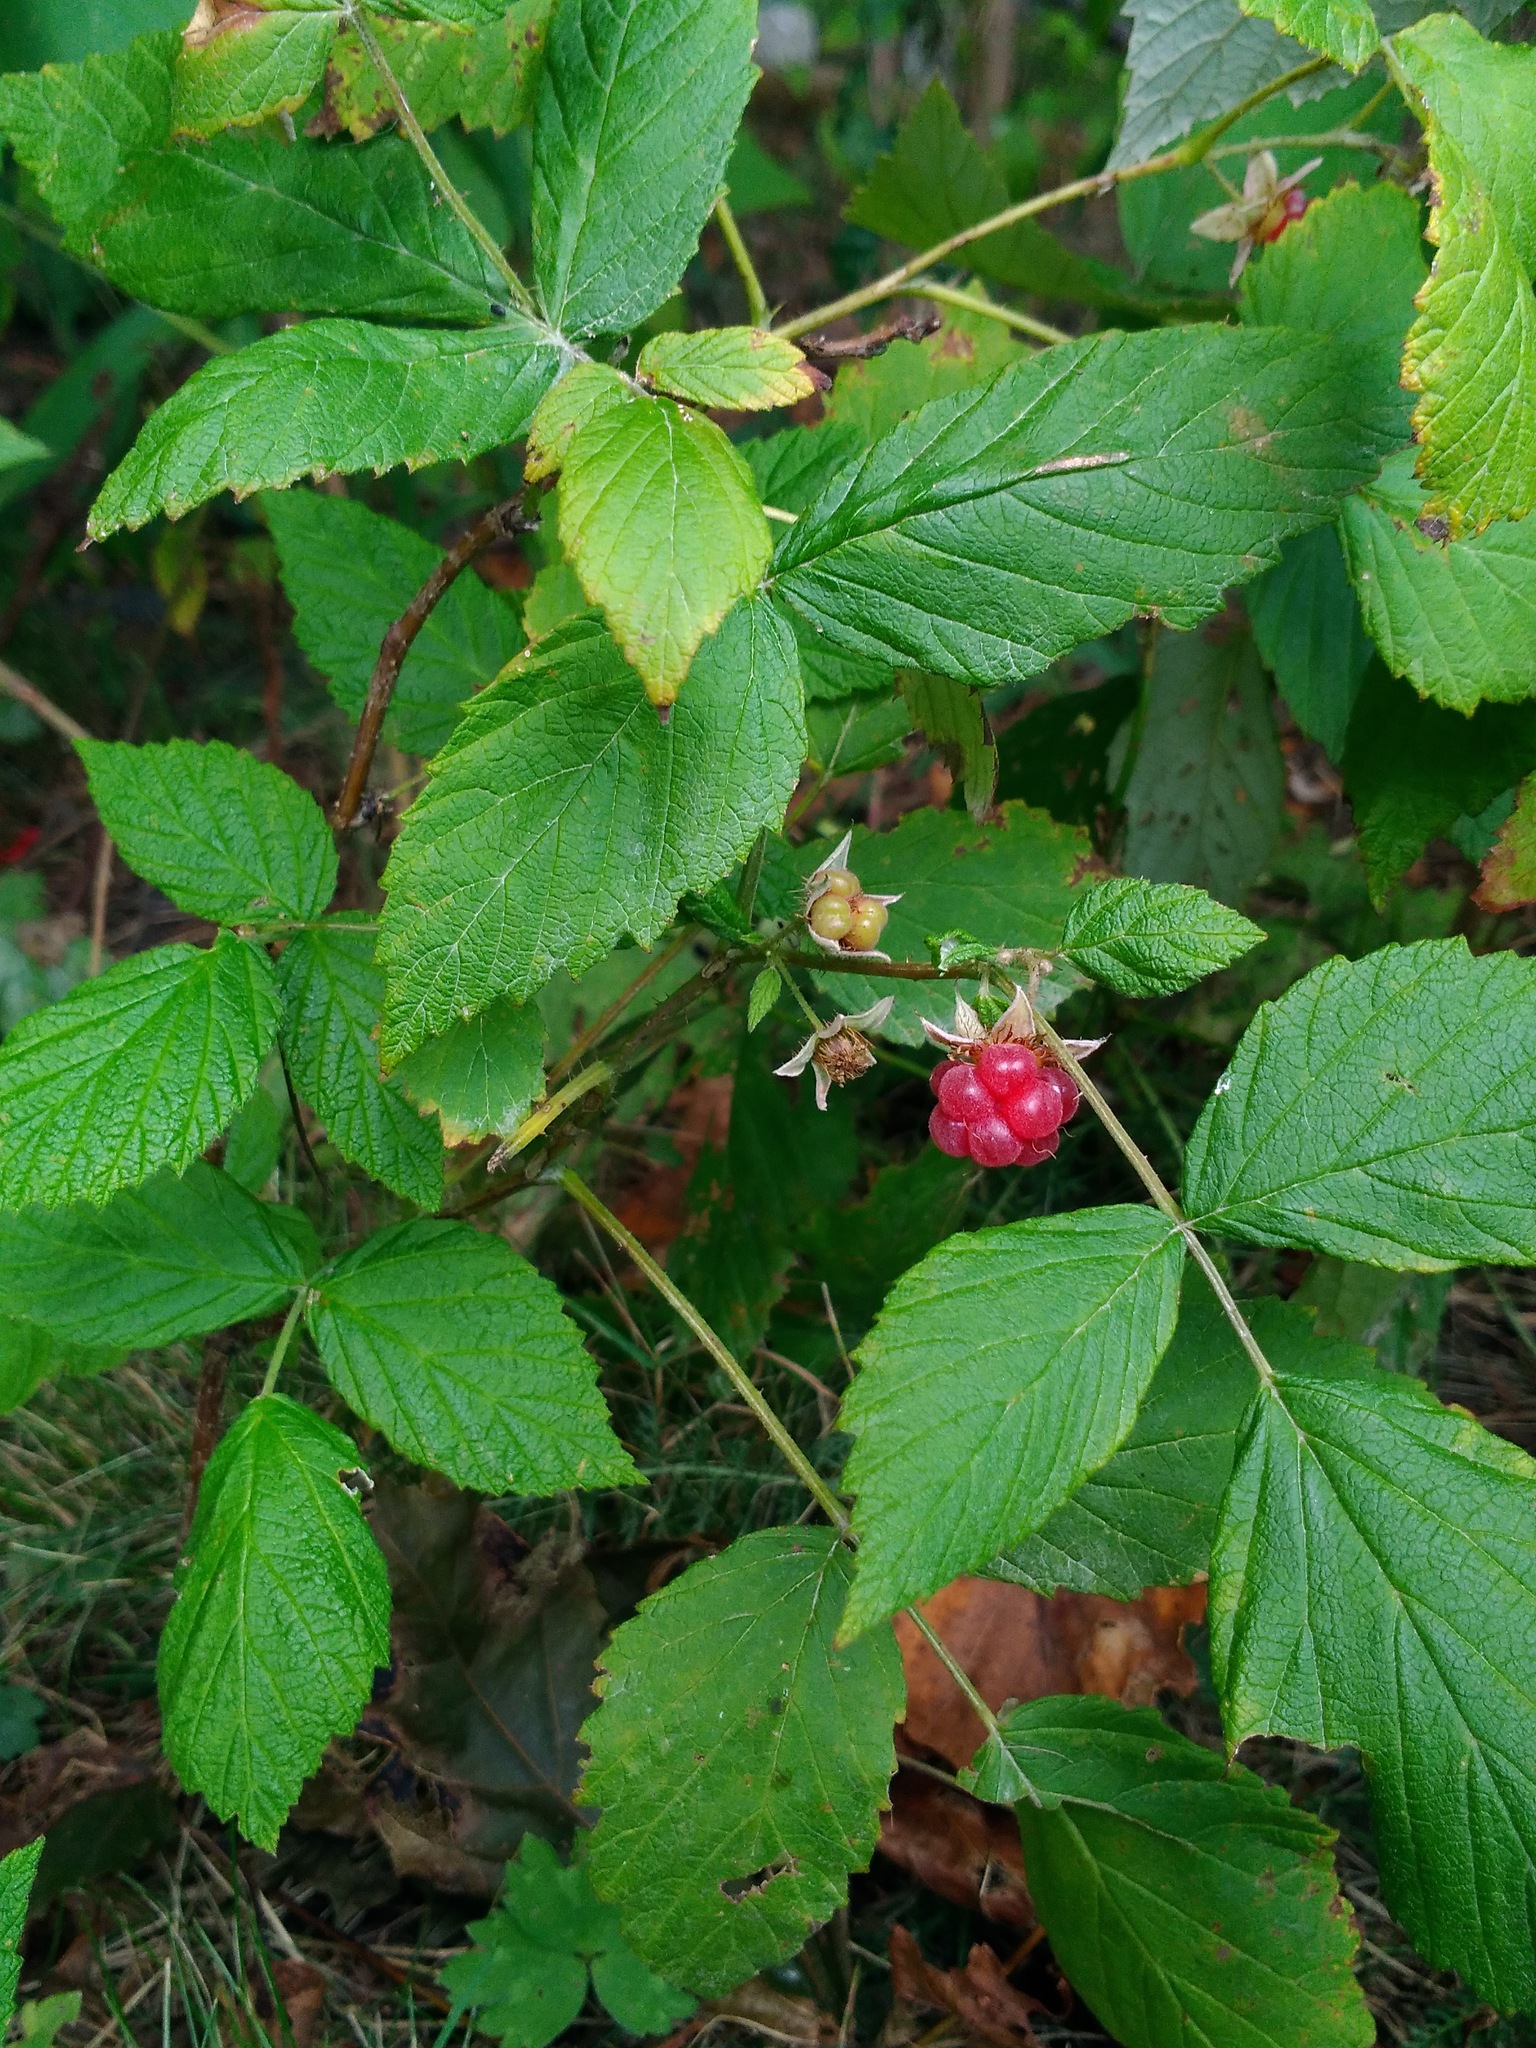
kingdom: Plantae
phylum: Tracheophyta
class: Magnoliopsida
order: Rosales
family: Rosaceae
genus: Rubus
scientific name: Rubus idaeus
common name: Raspberry
